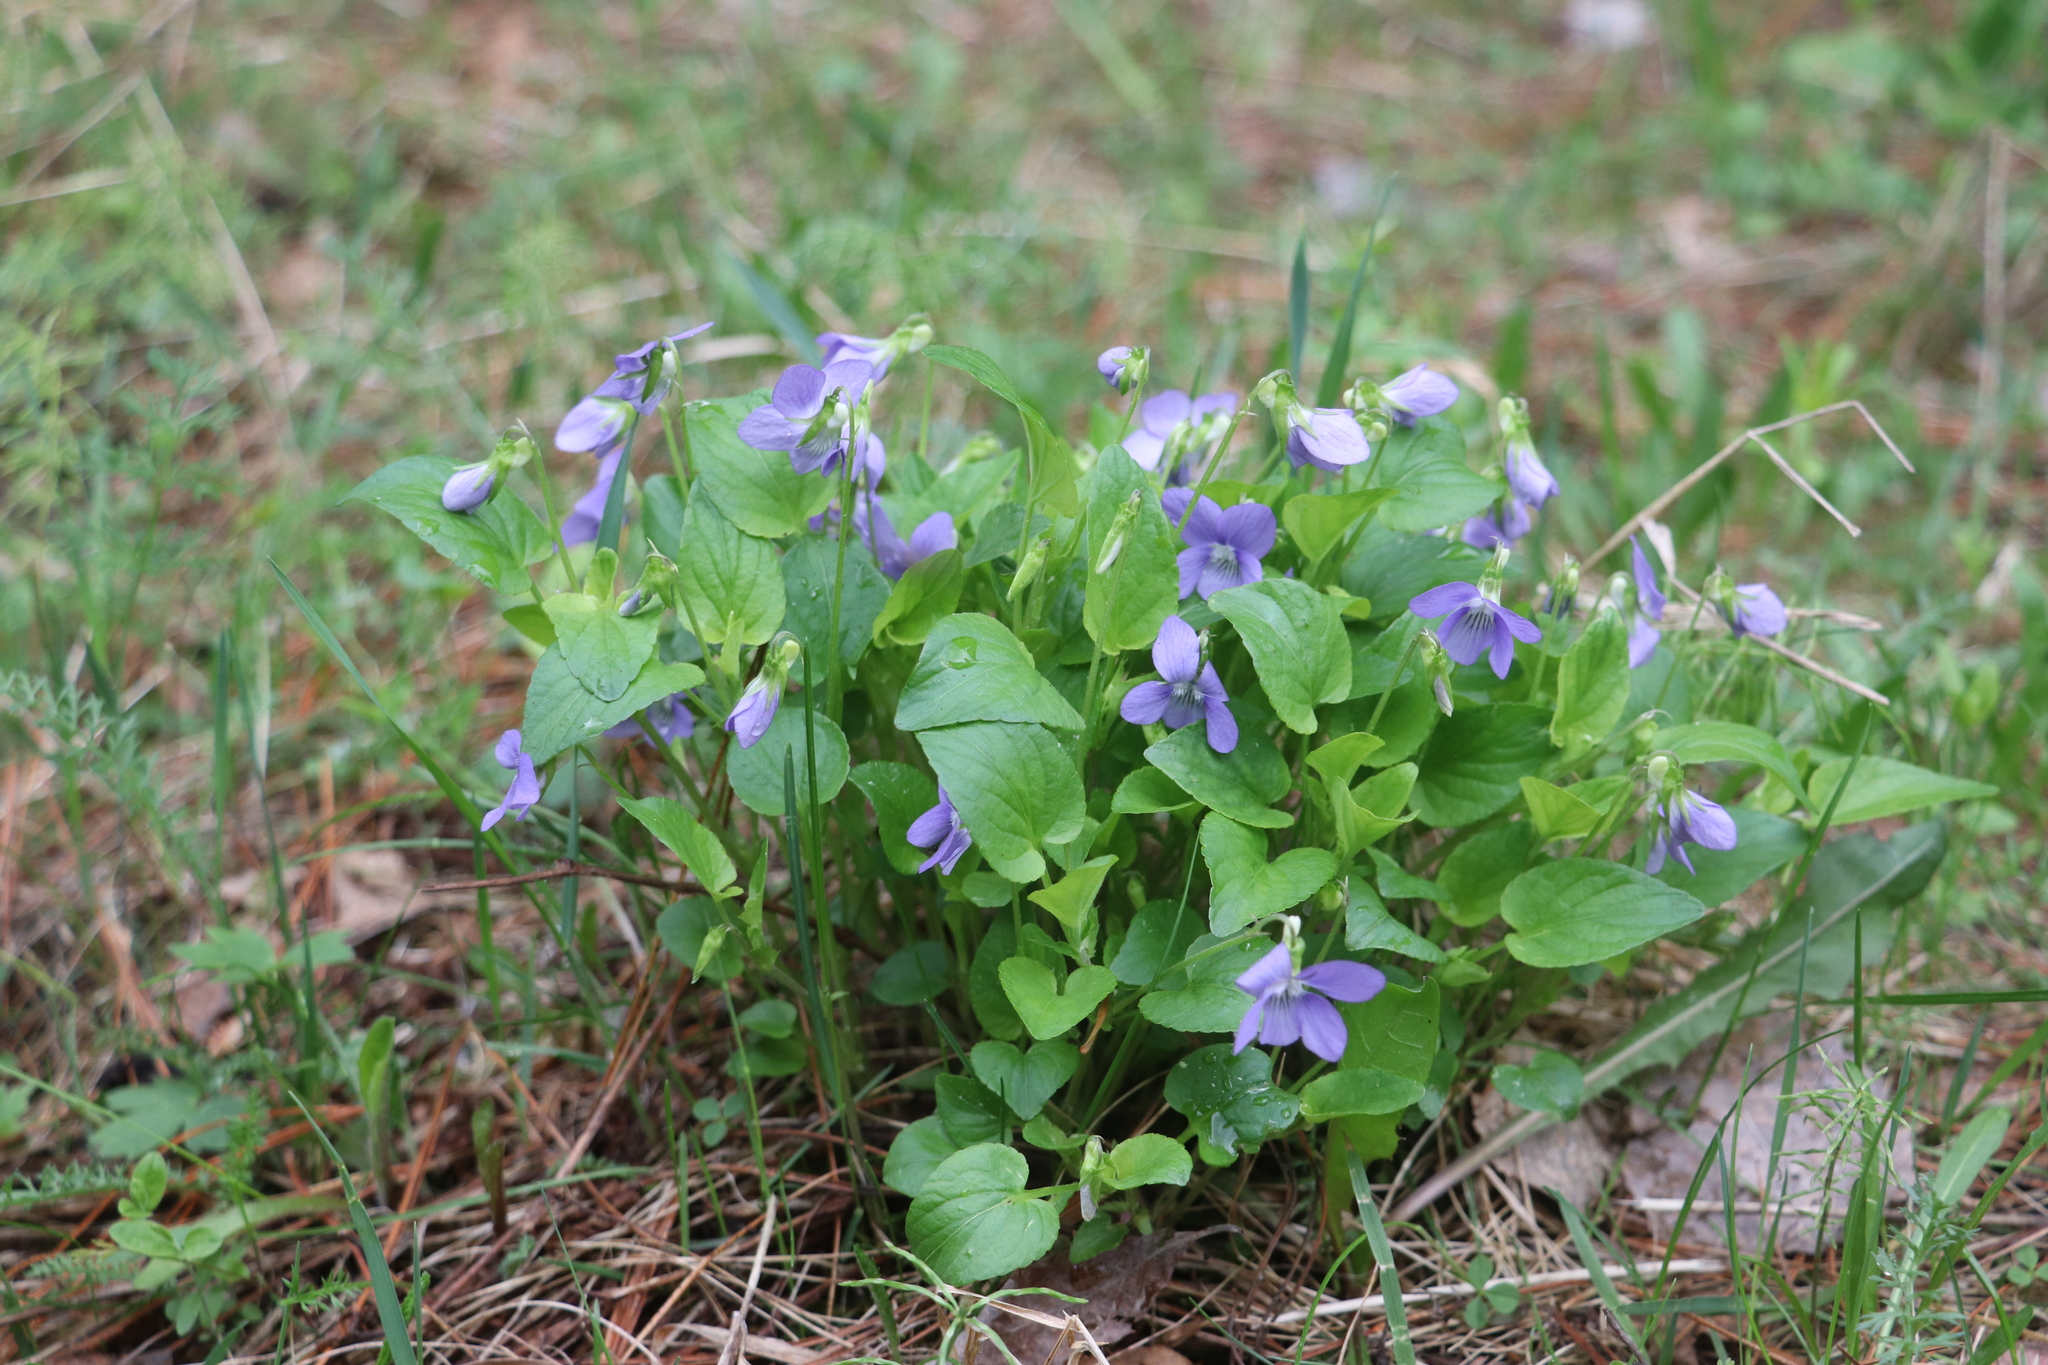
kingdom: Plantae
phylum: Tracheophyta
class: Magnoliopsida
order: Malpighiales
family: Violaceae
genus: Viola
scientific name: Viola canina
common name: Heath dog-violet
